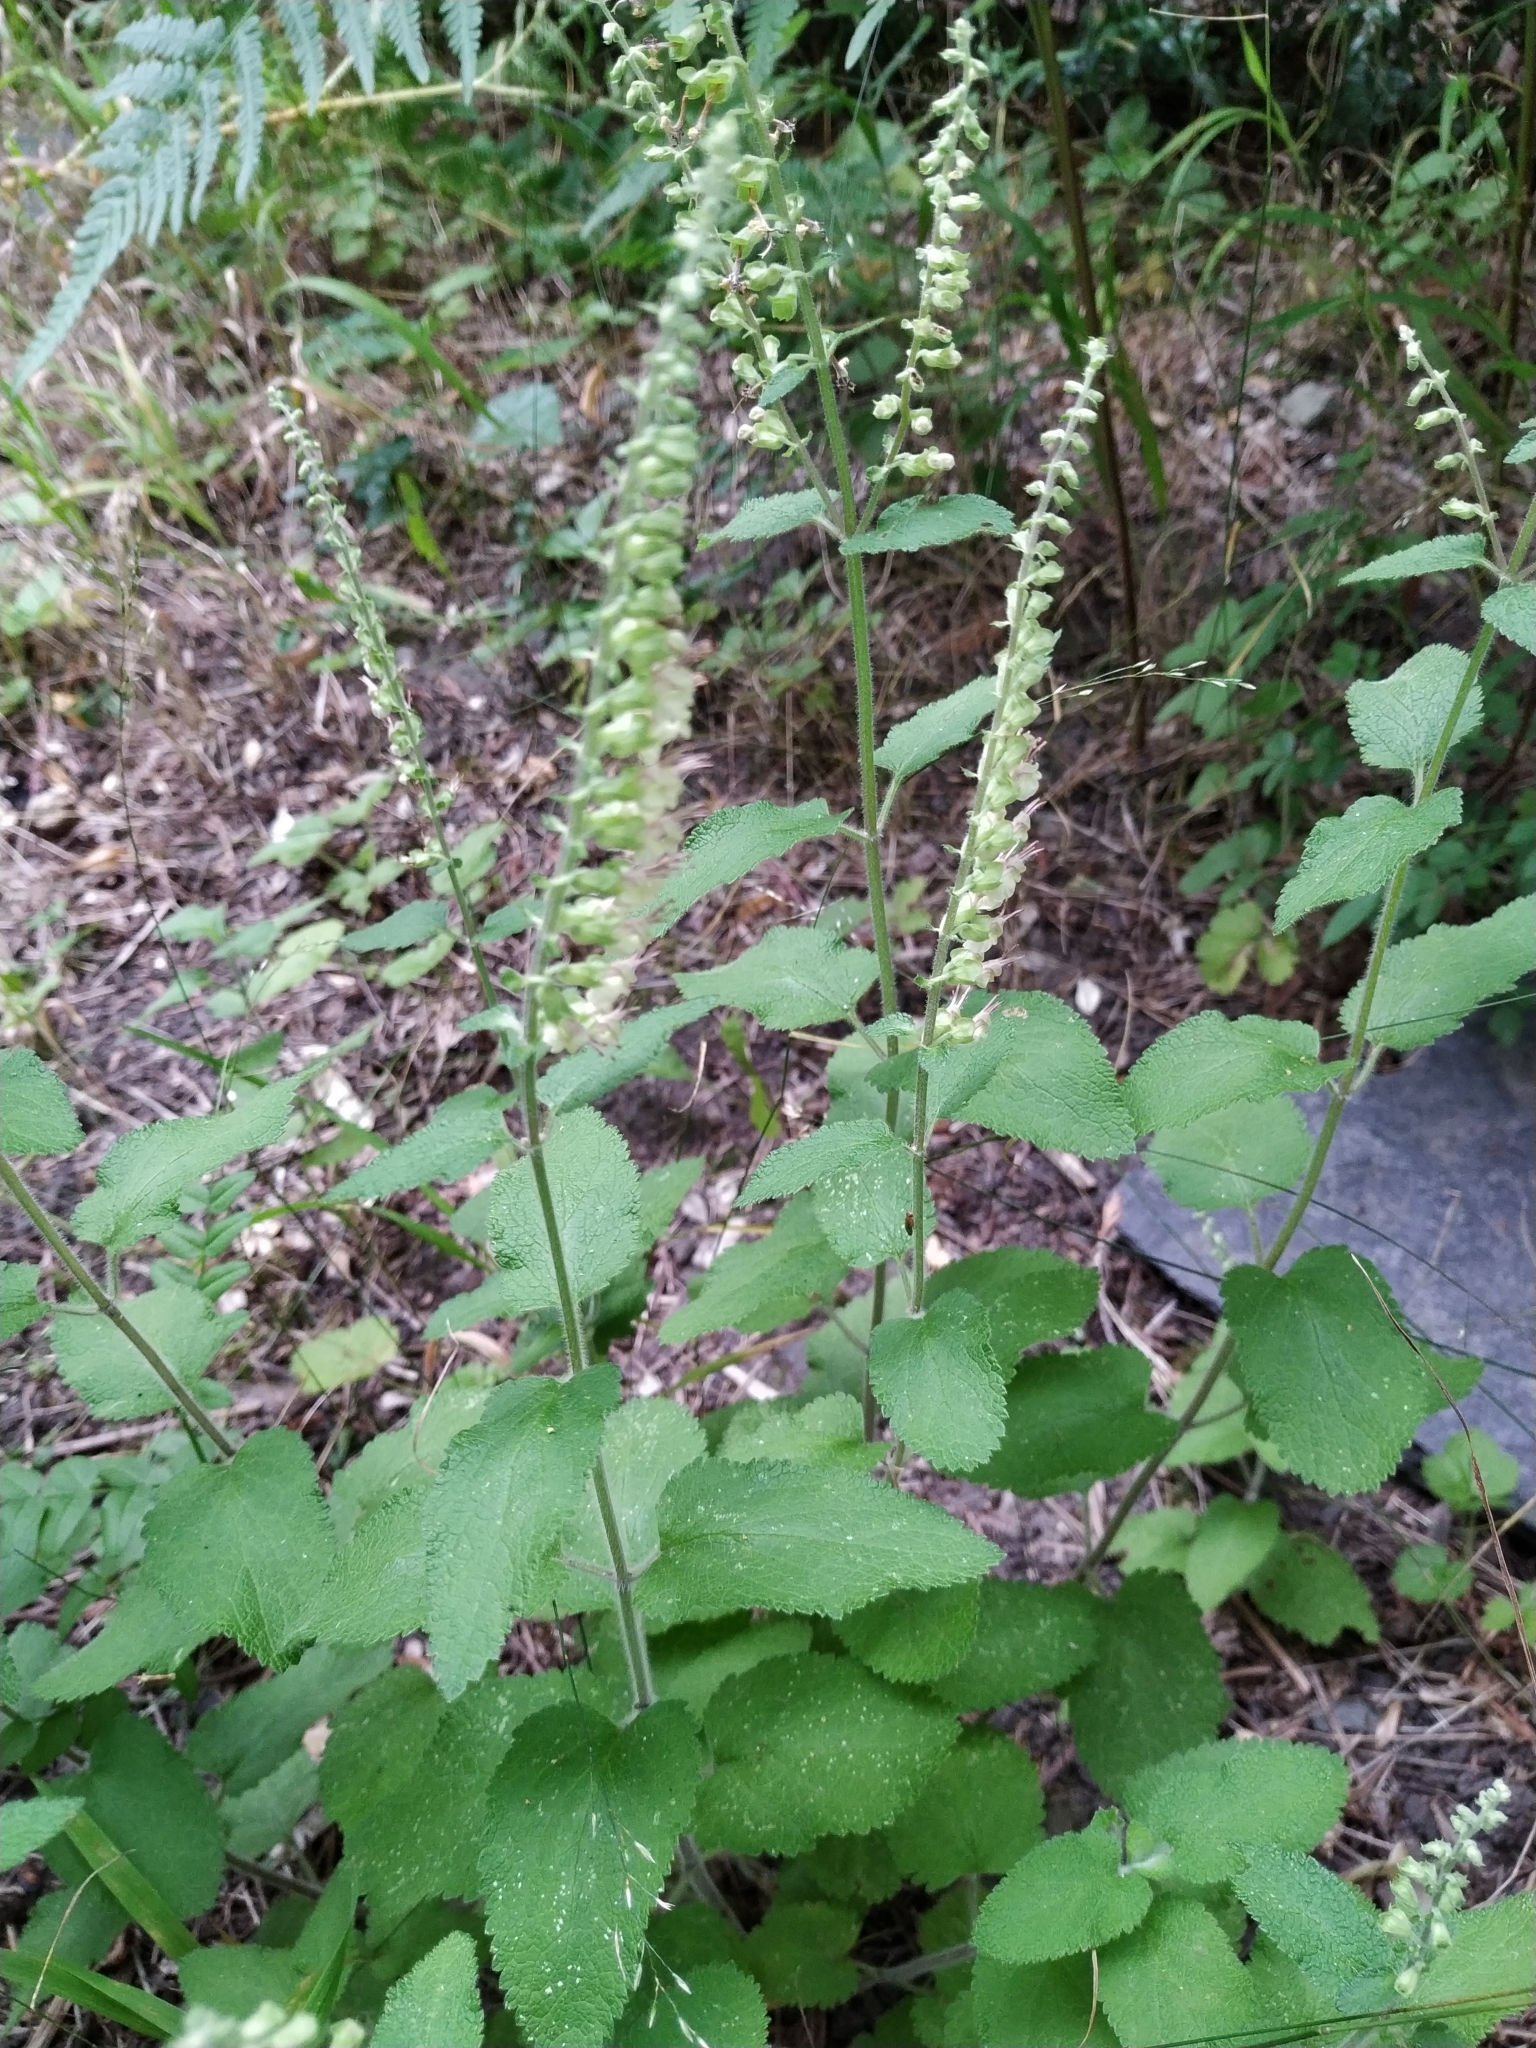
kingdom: Plantae
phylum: Tracheophyta
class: Magnoliopsida
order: Lamiales
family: Lamiaceae
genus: Teucrium
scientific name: Teucrium scorodonia
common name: Woodland germander
